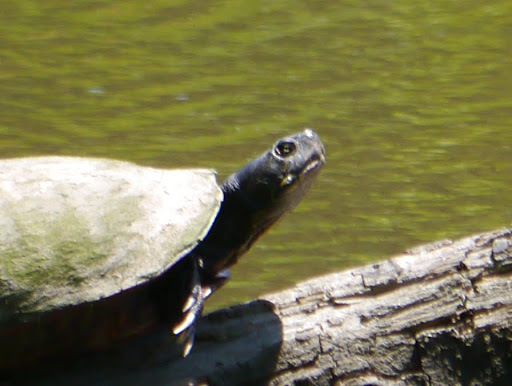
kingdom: Animalia
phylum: Chordata
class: Testudines
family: Emydidae
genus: Pseudemys
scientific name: Pseudemys rubriventris
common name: American red-bellied turtle
